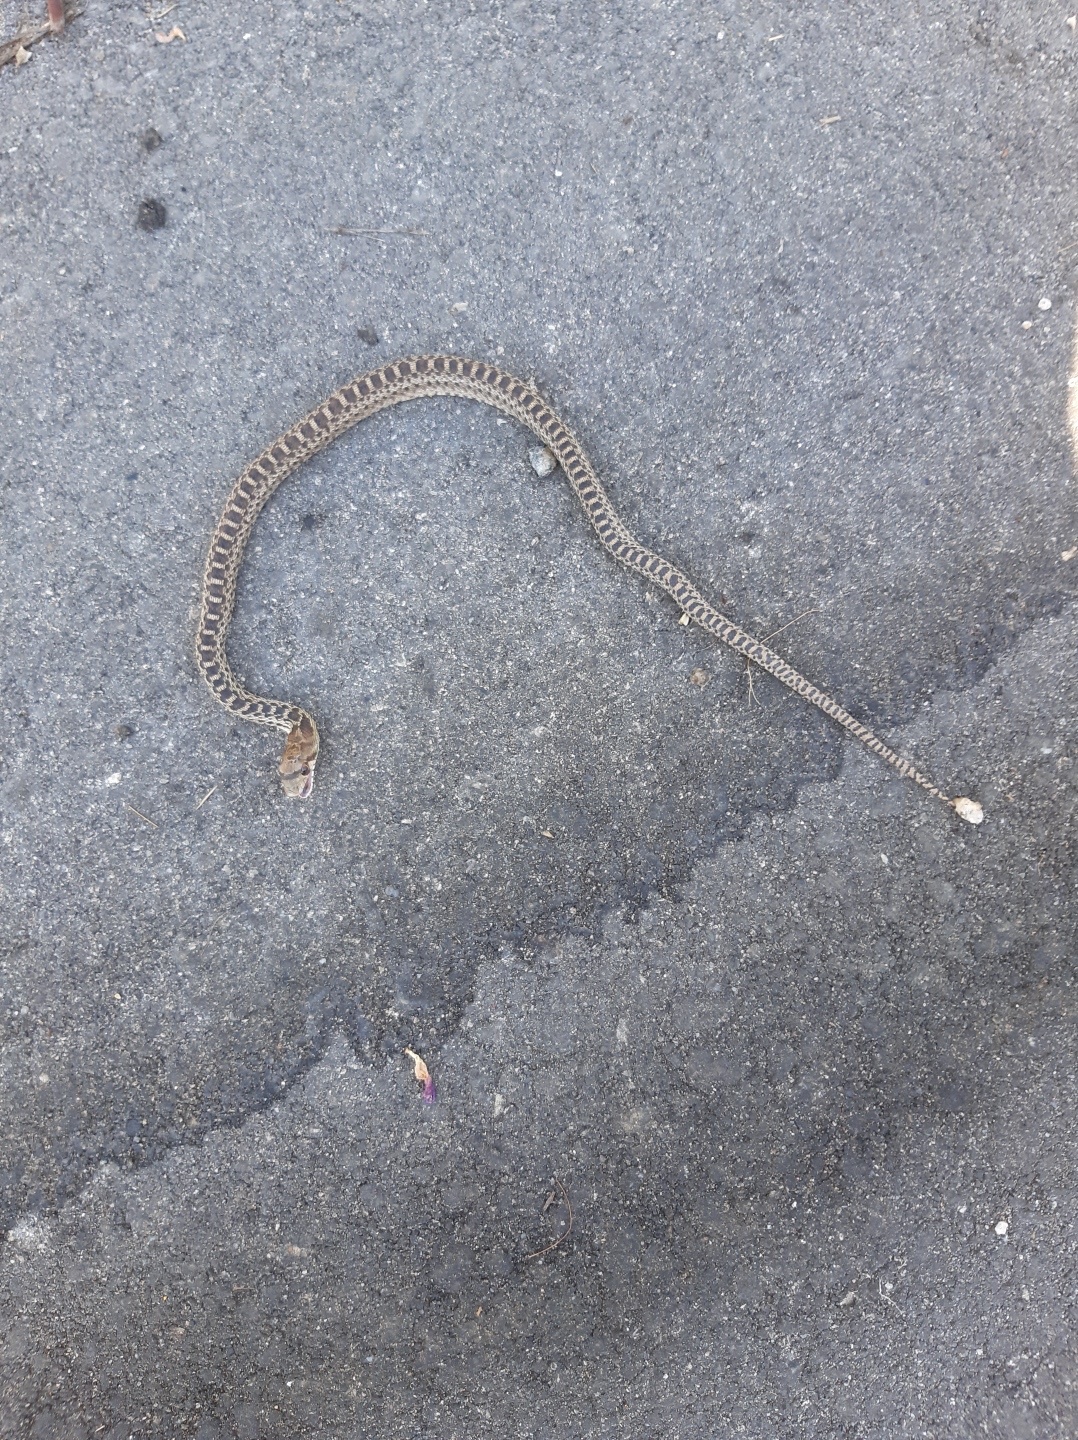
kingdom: Animalia
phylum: Chordata
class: Squamata
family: Colubridae
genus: Pituophis
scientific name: Pituophis catenifer
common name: Gopher snake
